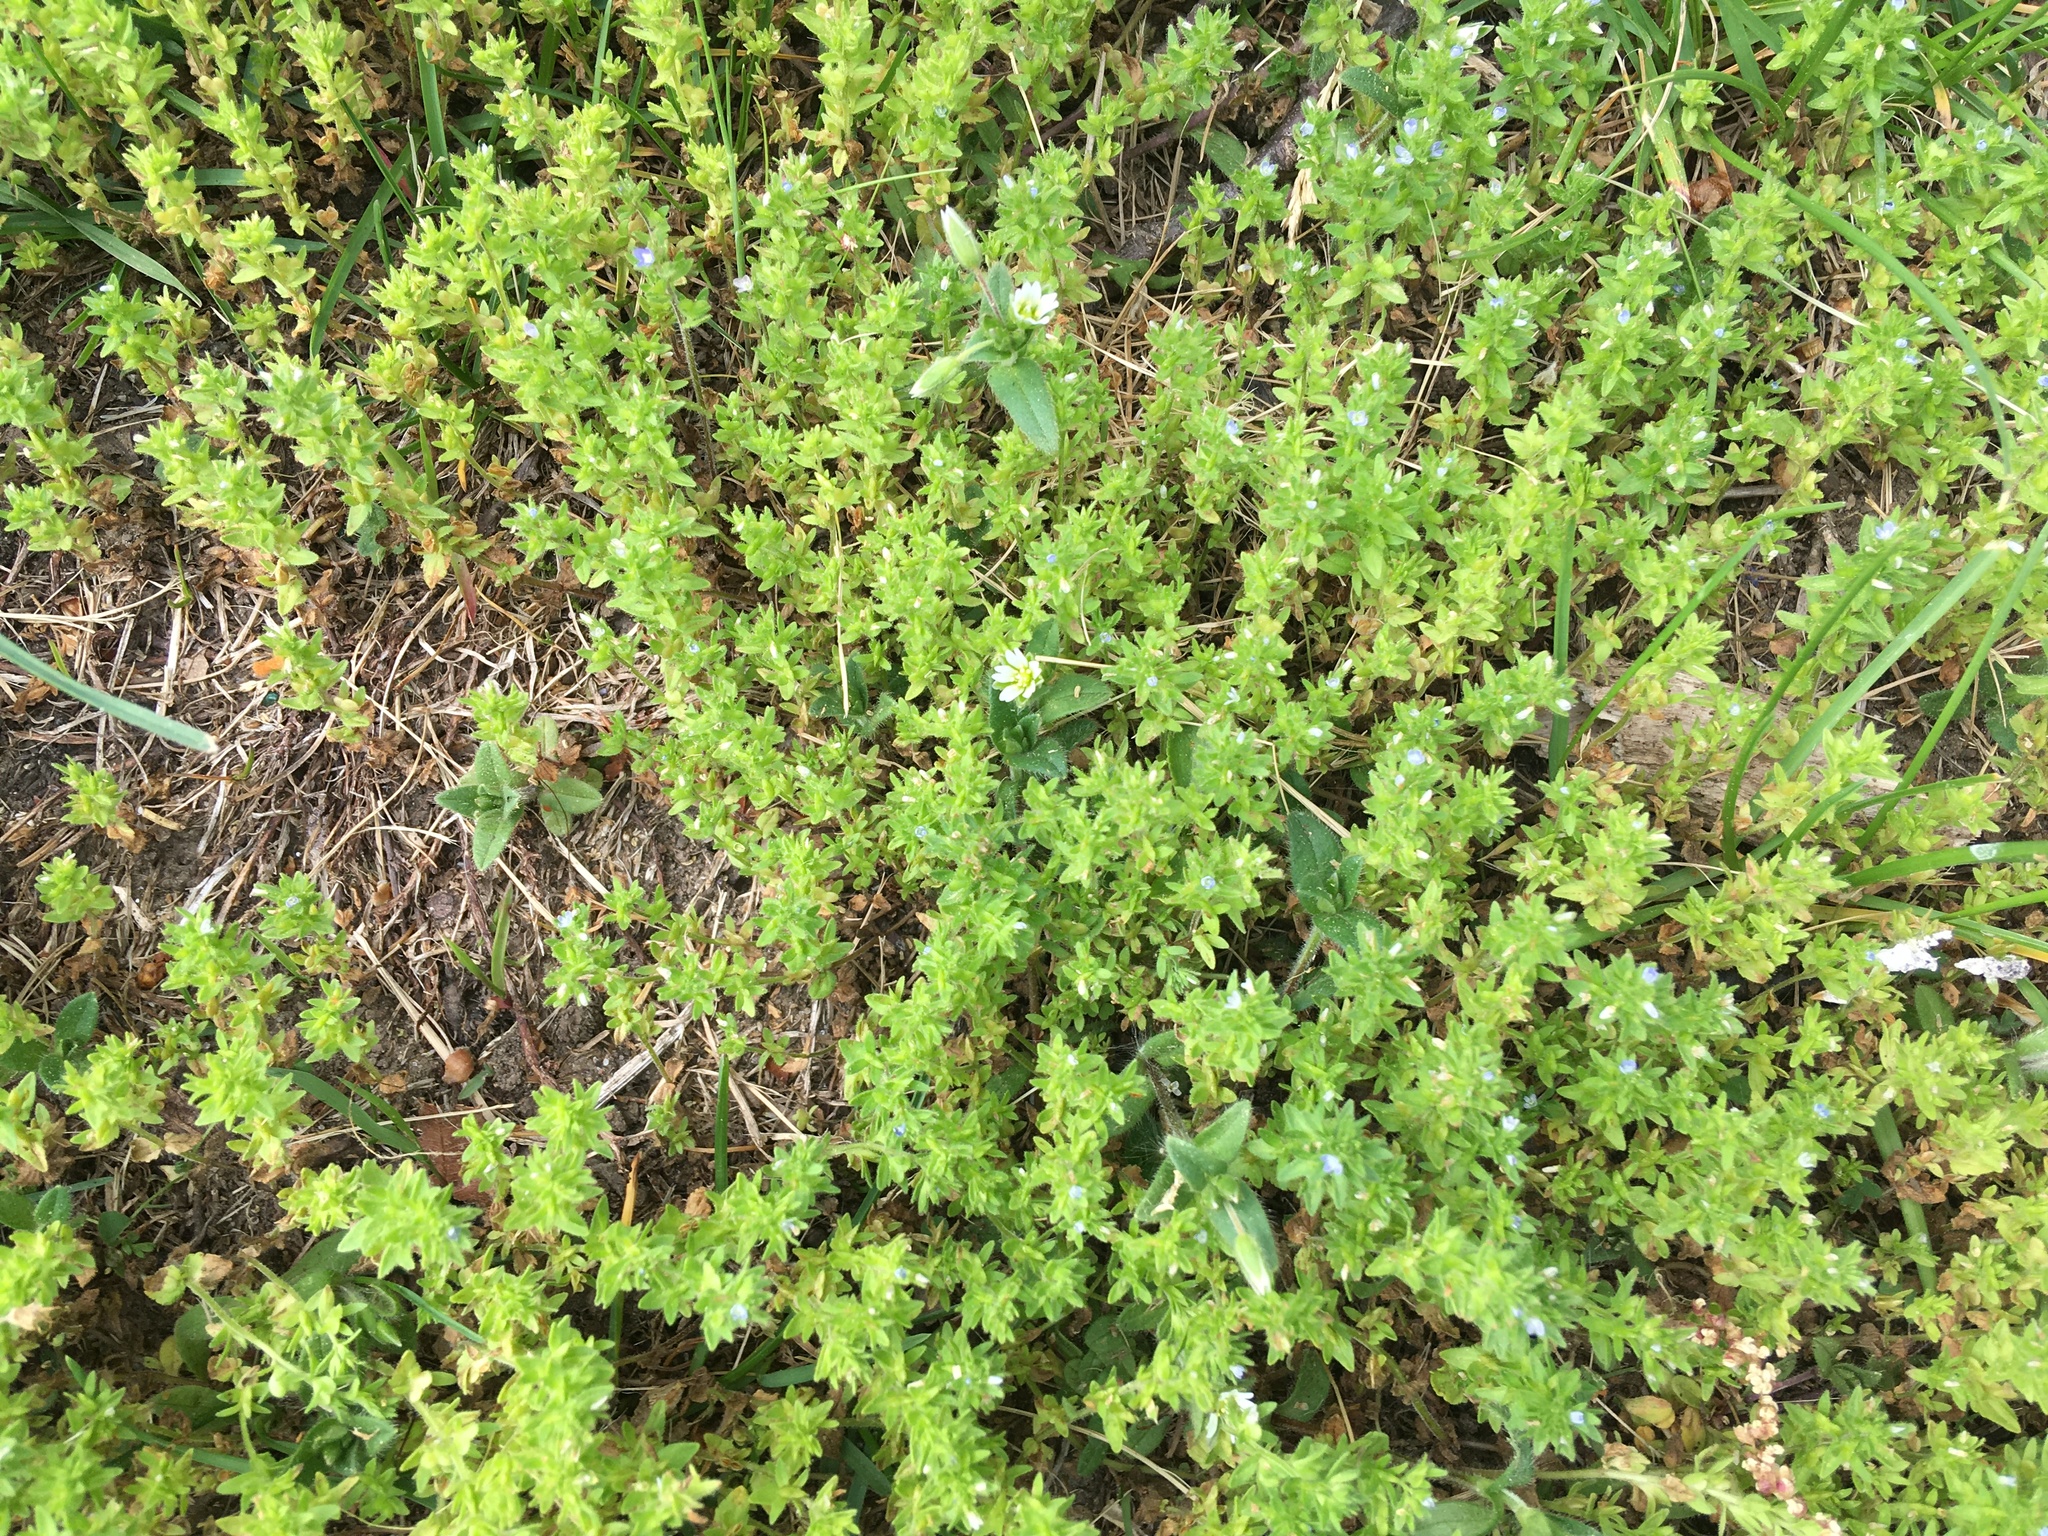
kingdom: Plantae
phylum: Tracheophyta
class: Magnoliopsida
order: Lamiales
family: Plantaginaceae
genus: Veronica
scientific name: Veronica arvensis
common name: Corn speedwell
